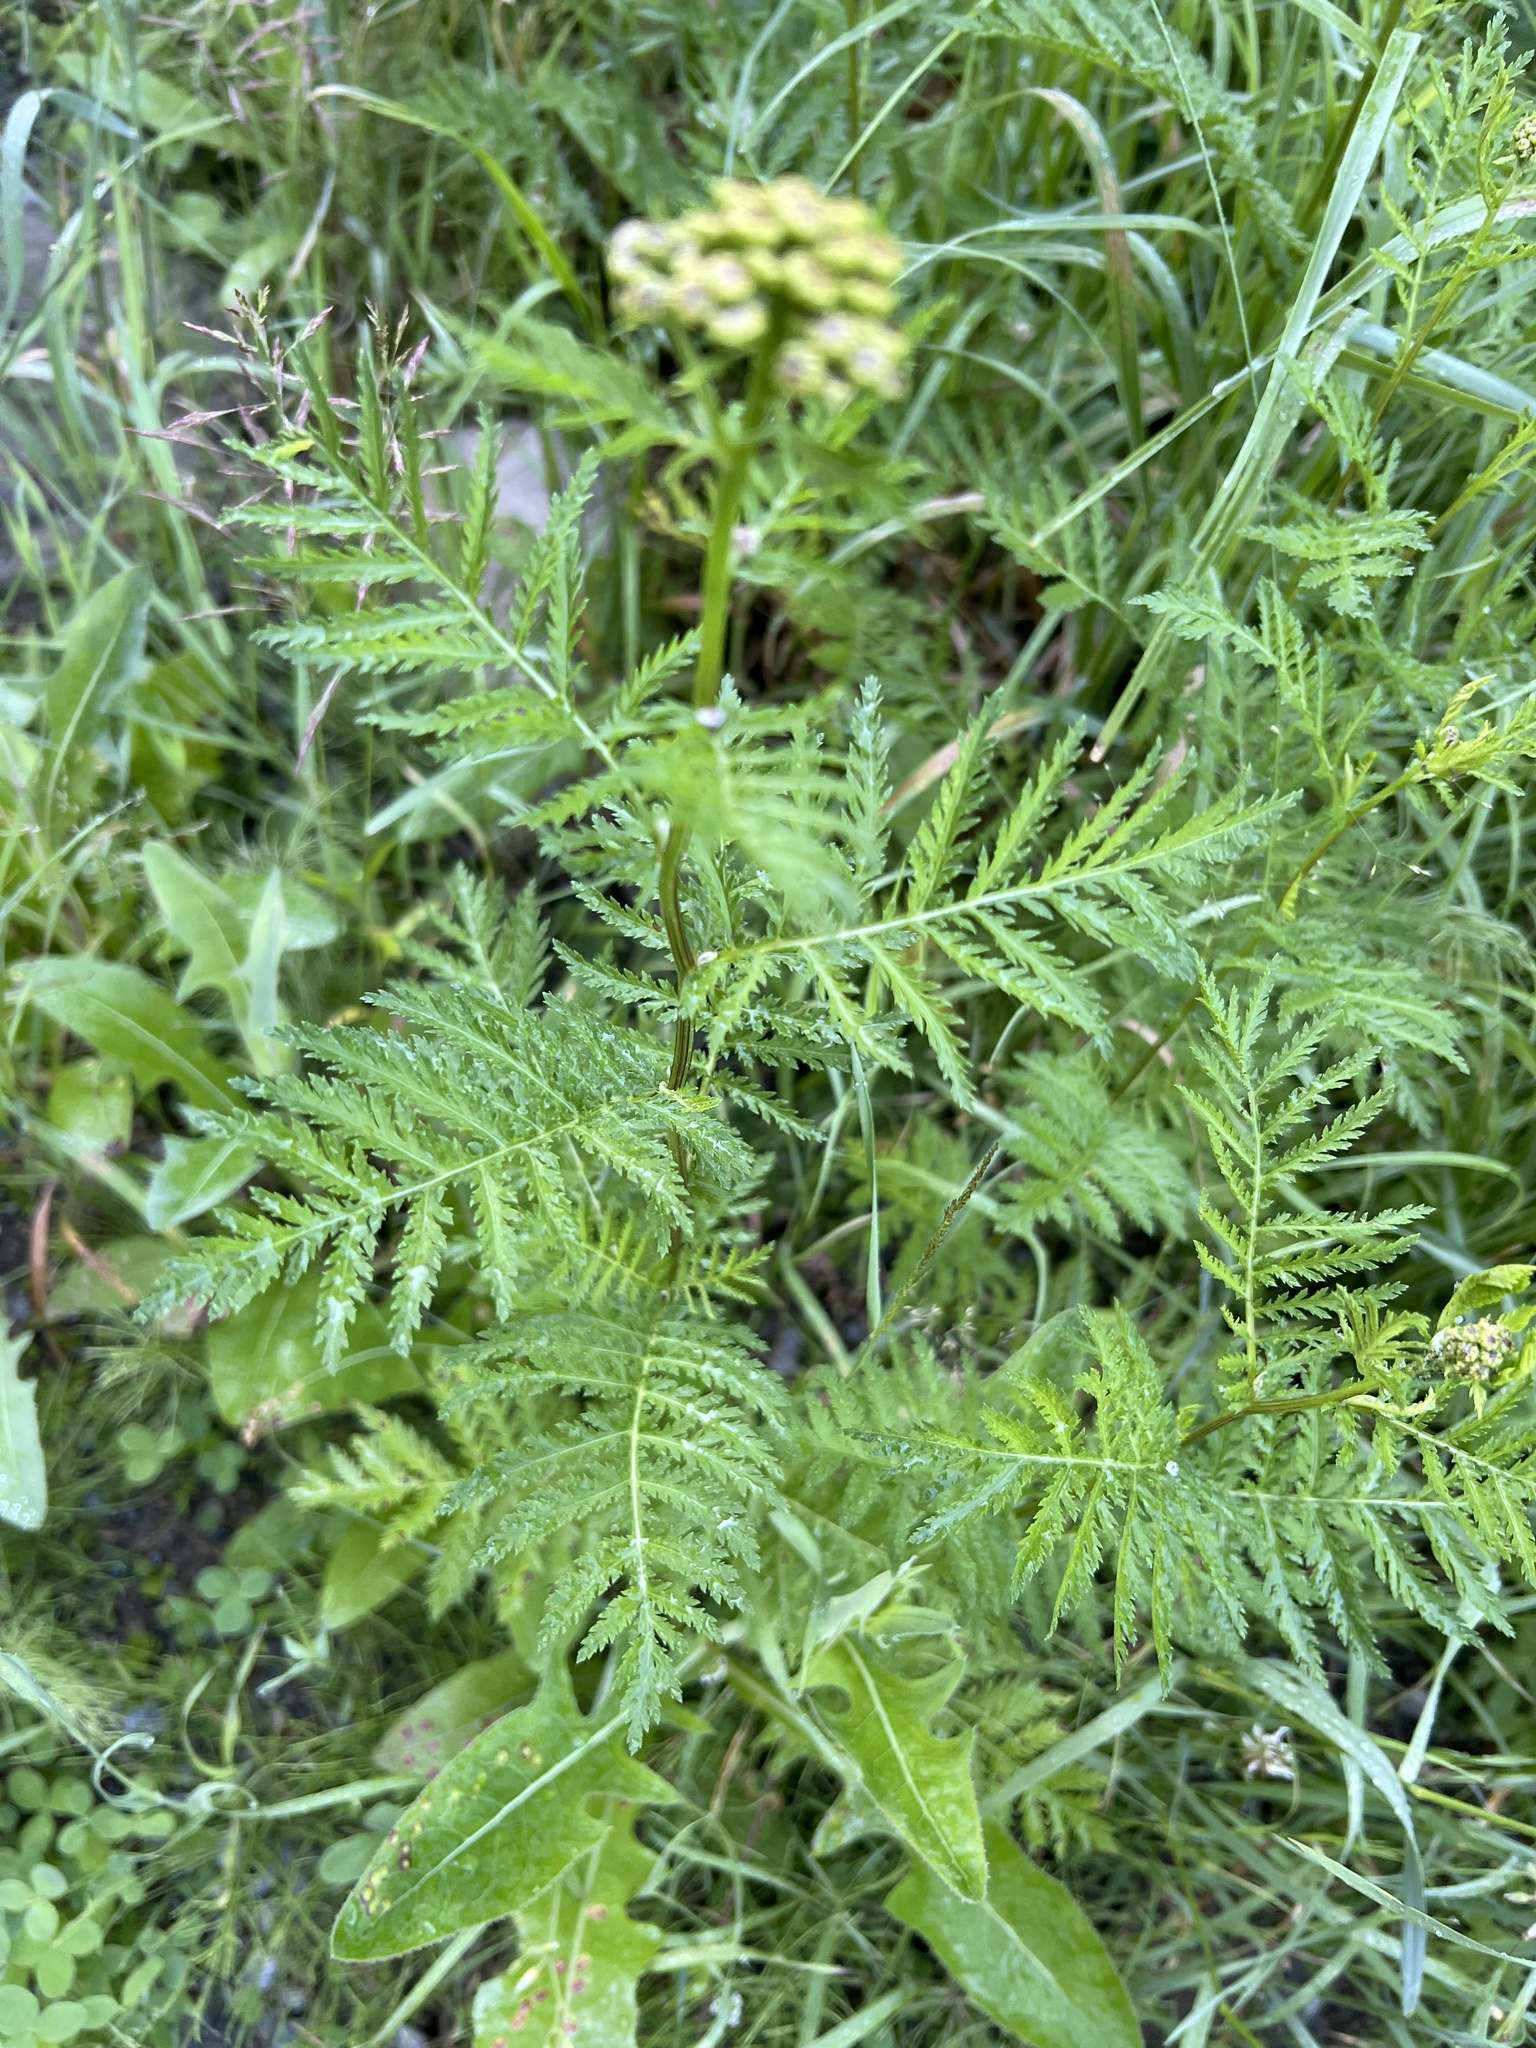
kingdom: Plantae
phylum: Tracheophyta
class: Magnoliopsida
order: Asterales
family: Asteraceae
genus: Tanacetum
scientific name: Tanacetum vulgare
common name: Common tansy
